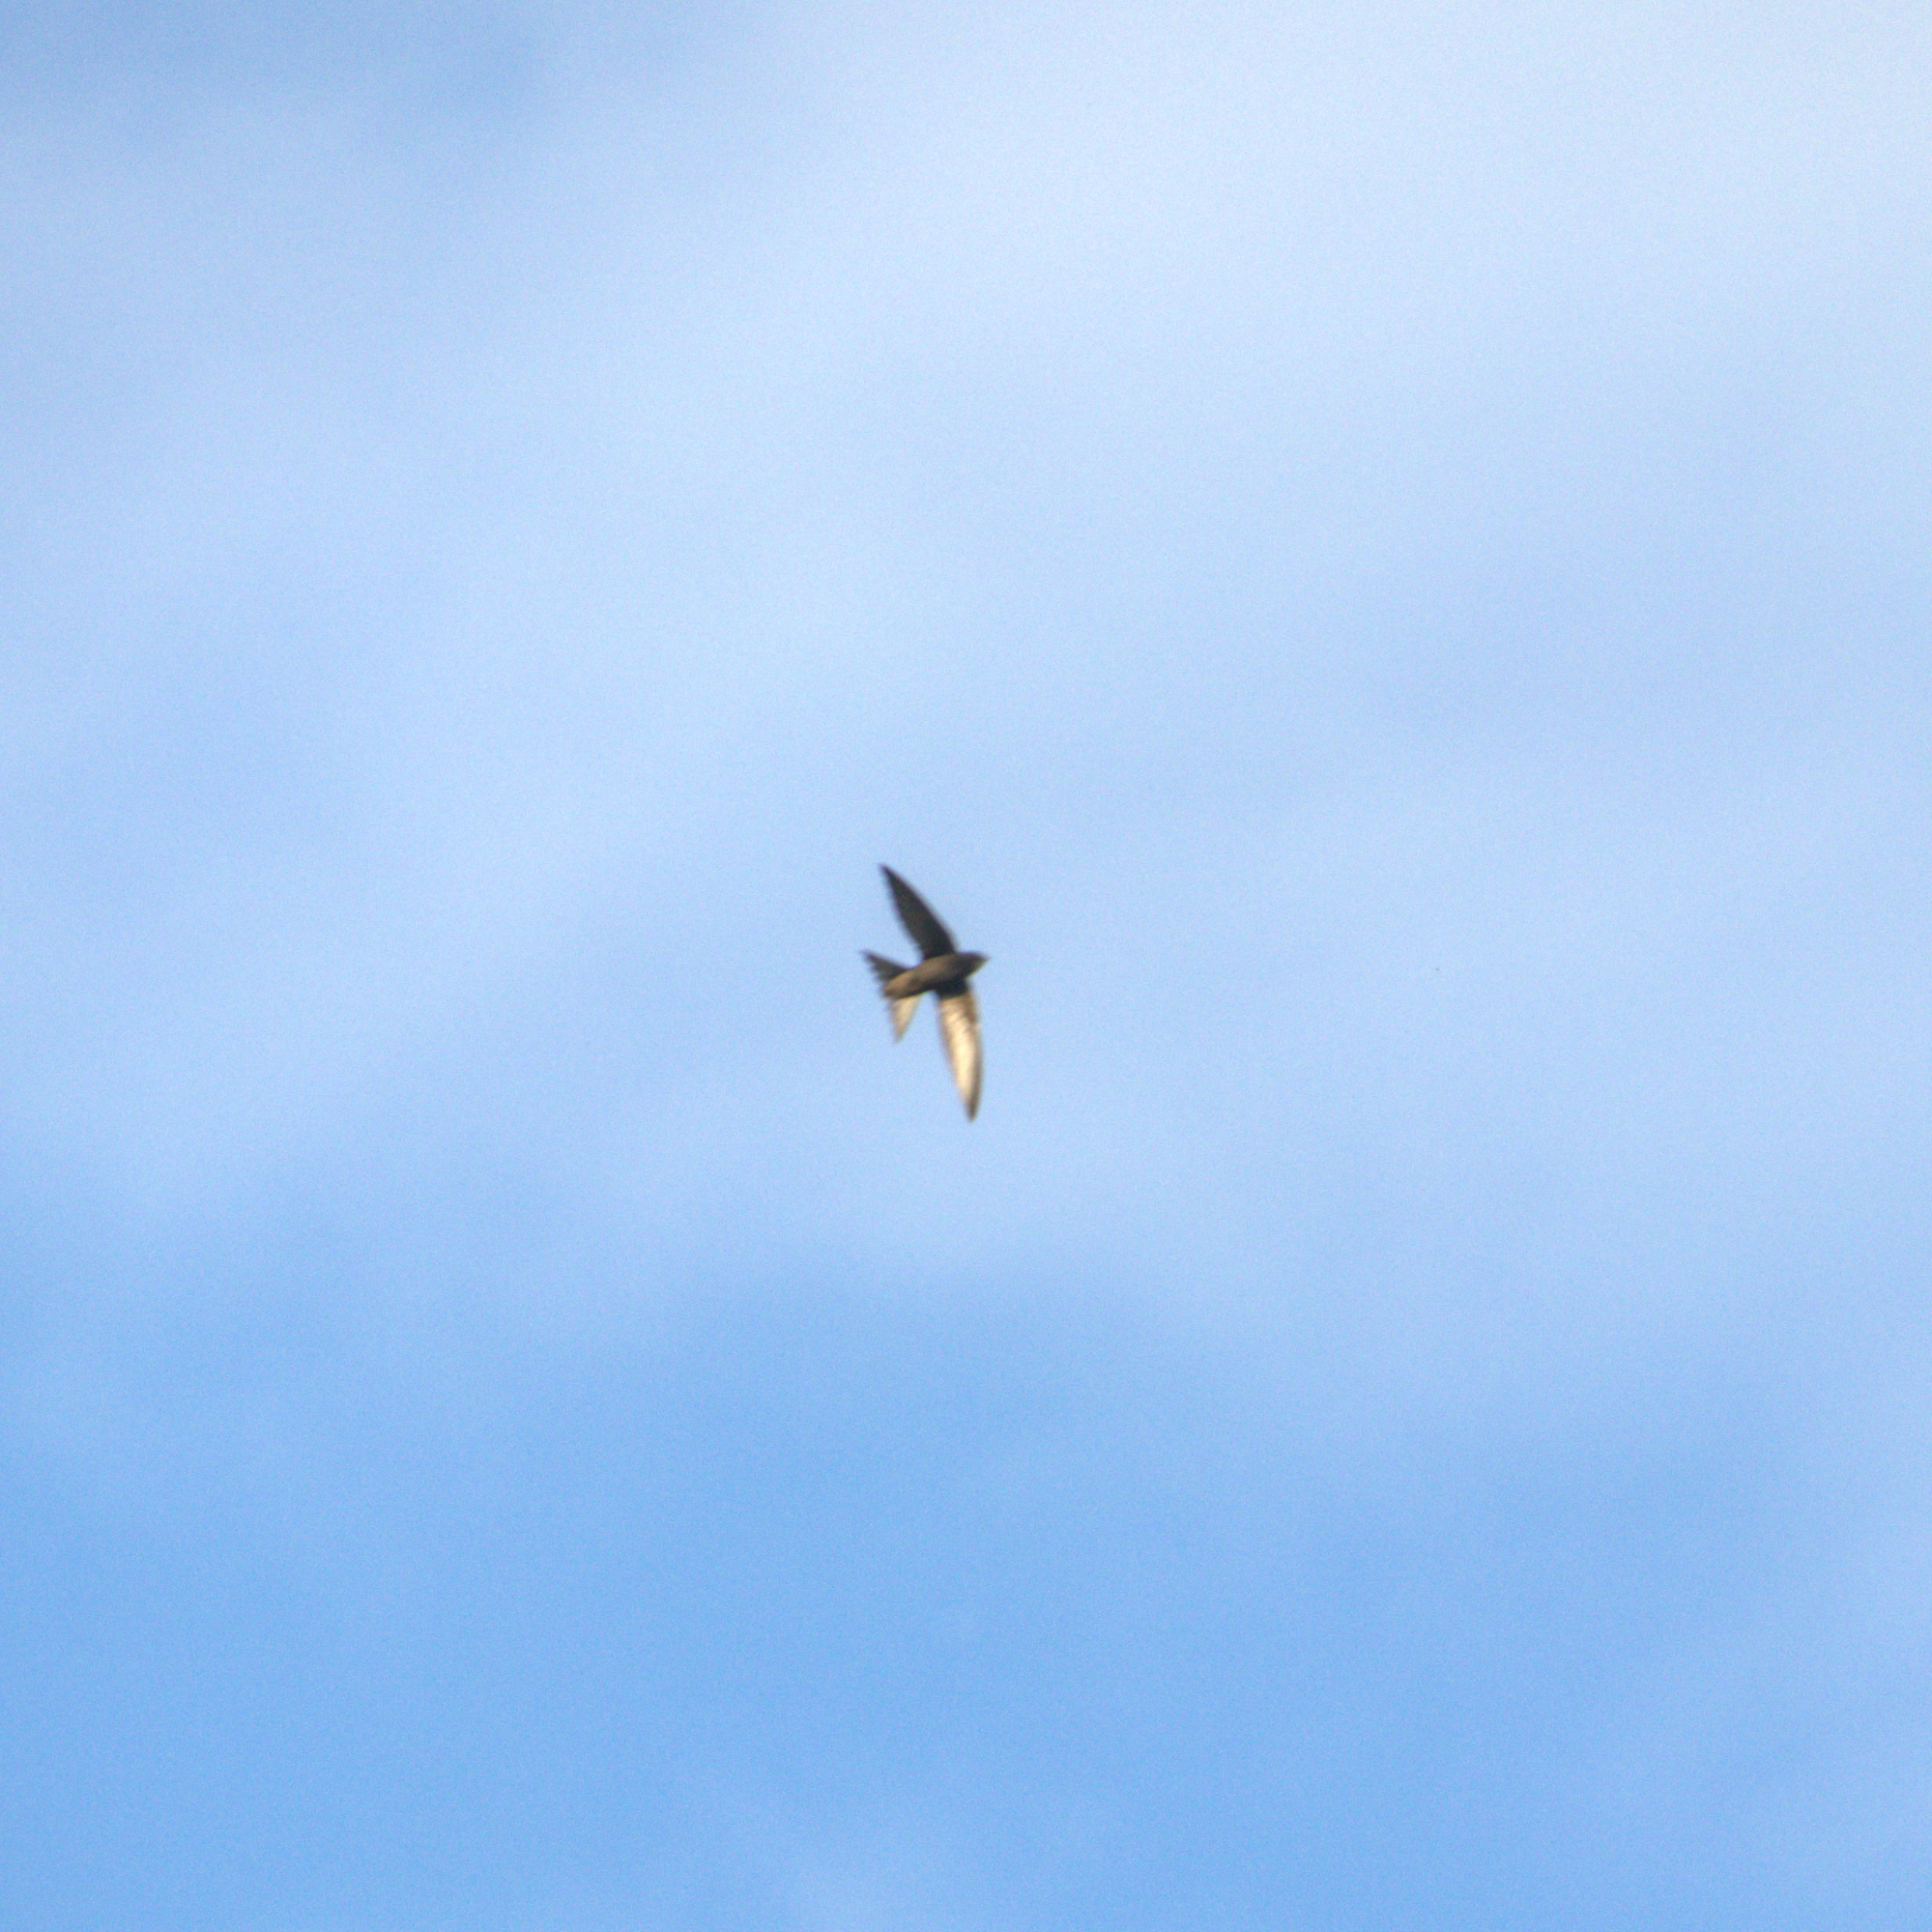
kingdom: Animalia
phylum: Chordata
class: Aves
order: Apodiformes
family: Apodidae
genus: Apus
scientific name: Apus apus
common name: Common swift
